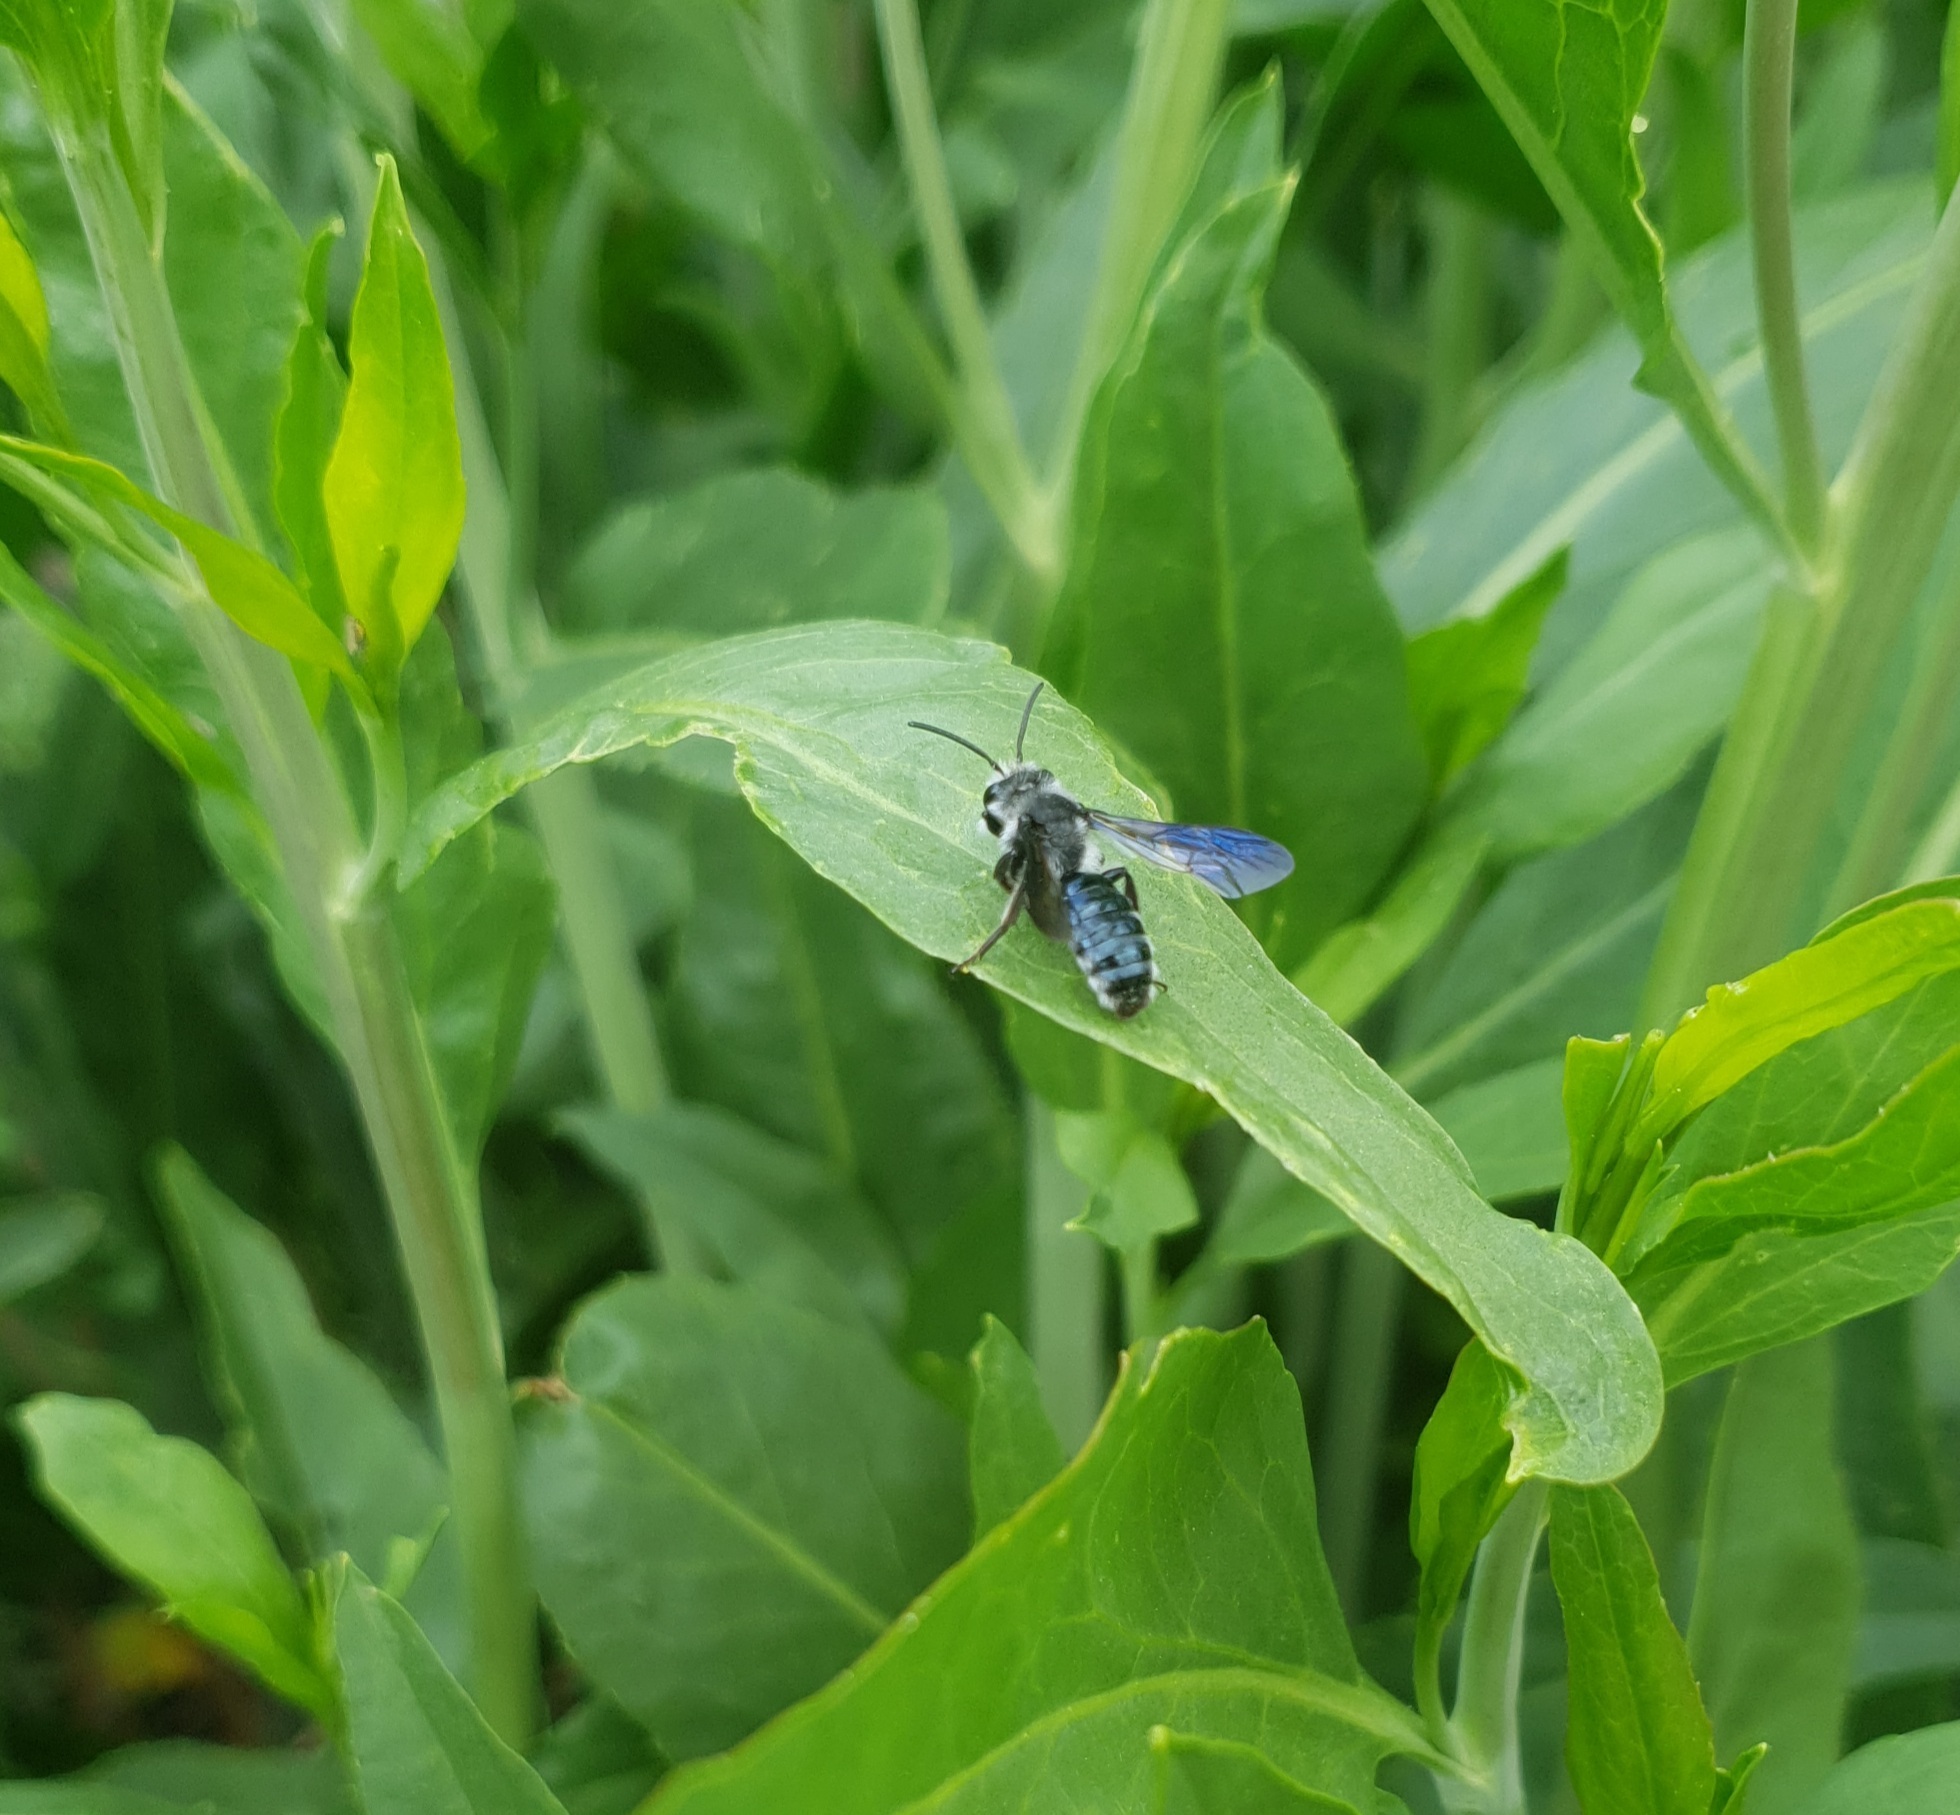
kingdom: Animalia
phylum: Arthropoda
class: Insecta
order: Hymenoptera
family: Andrenidae
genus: Andrena
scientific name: Andrena agilissima
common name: Violet-winged mining bee
